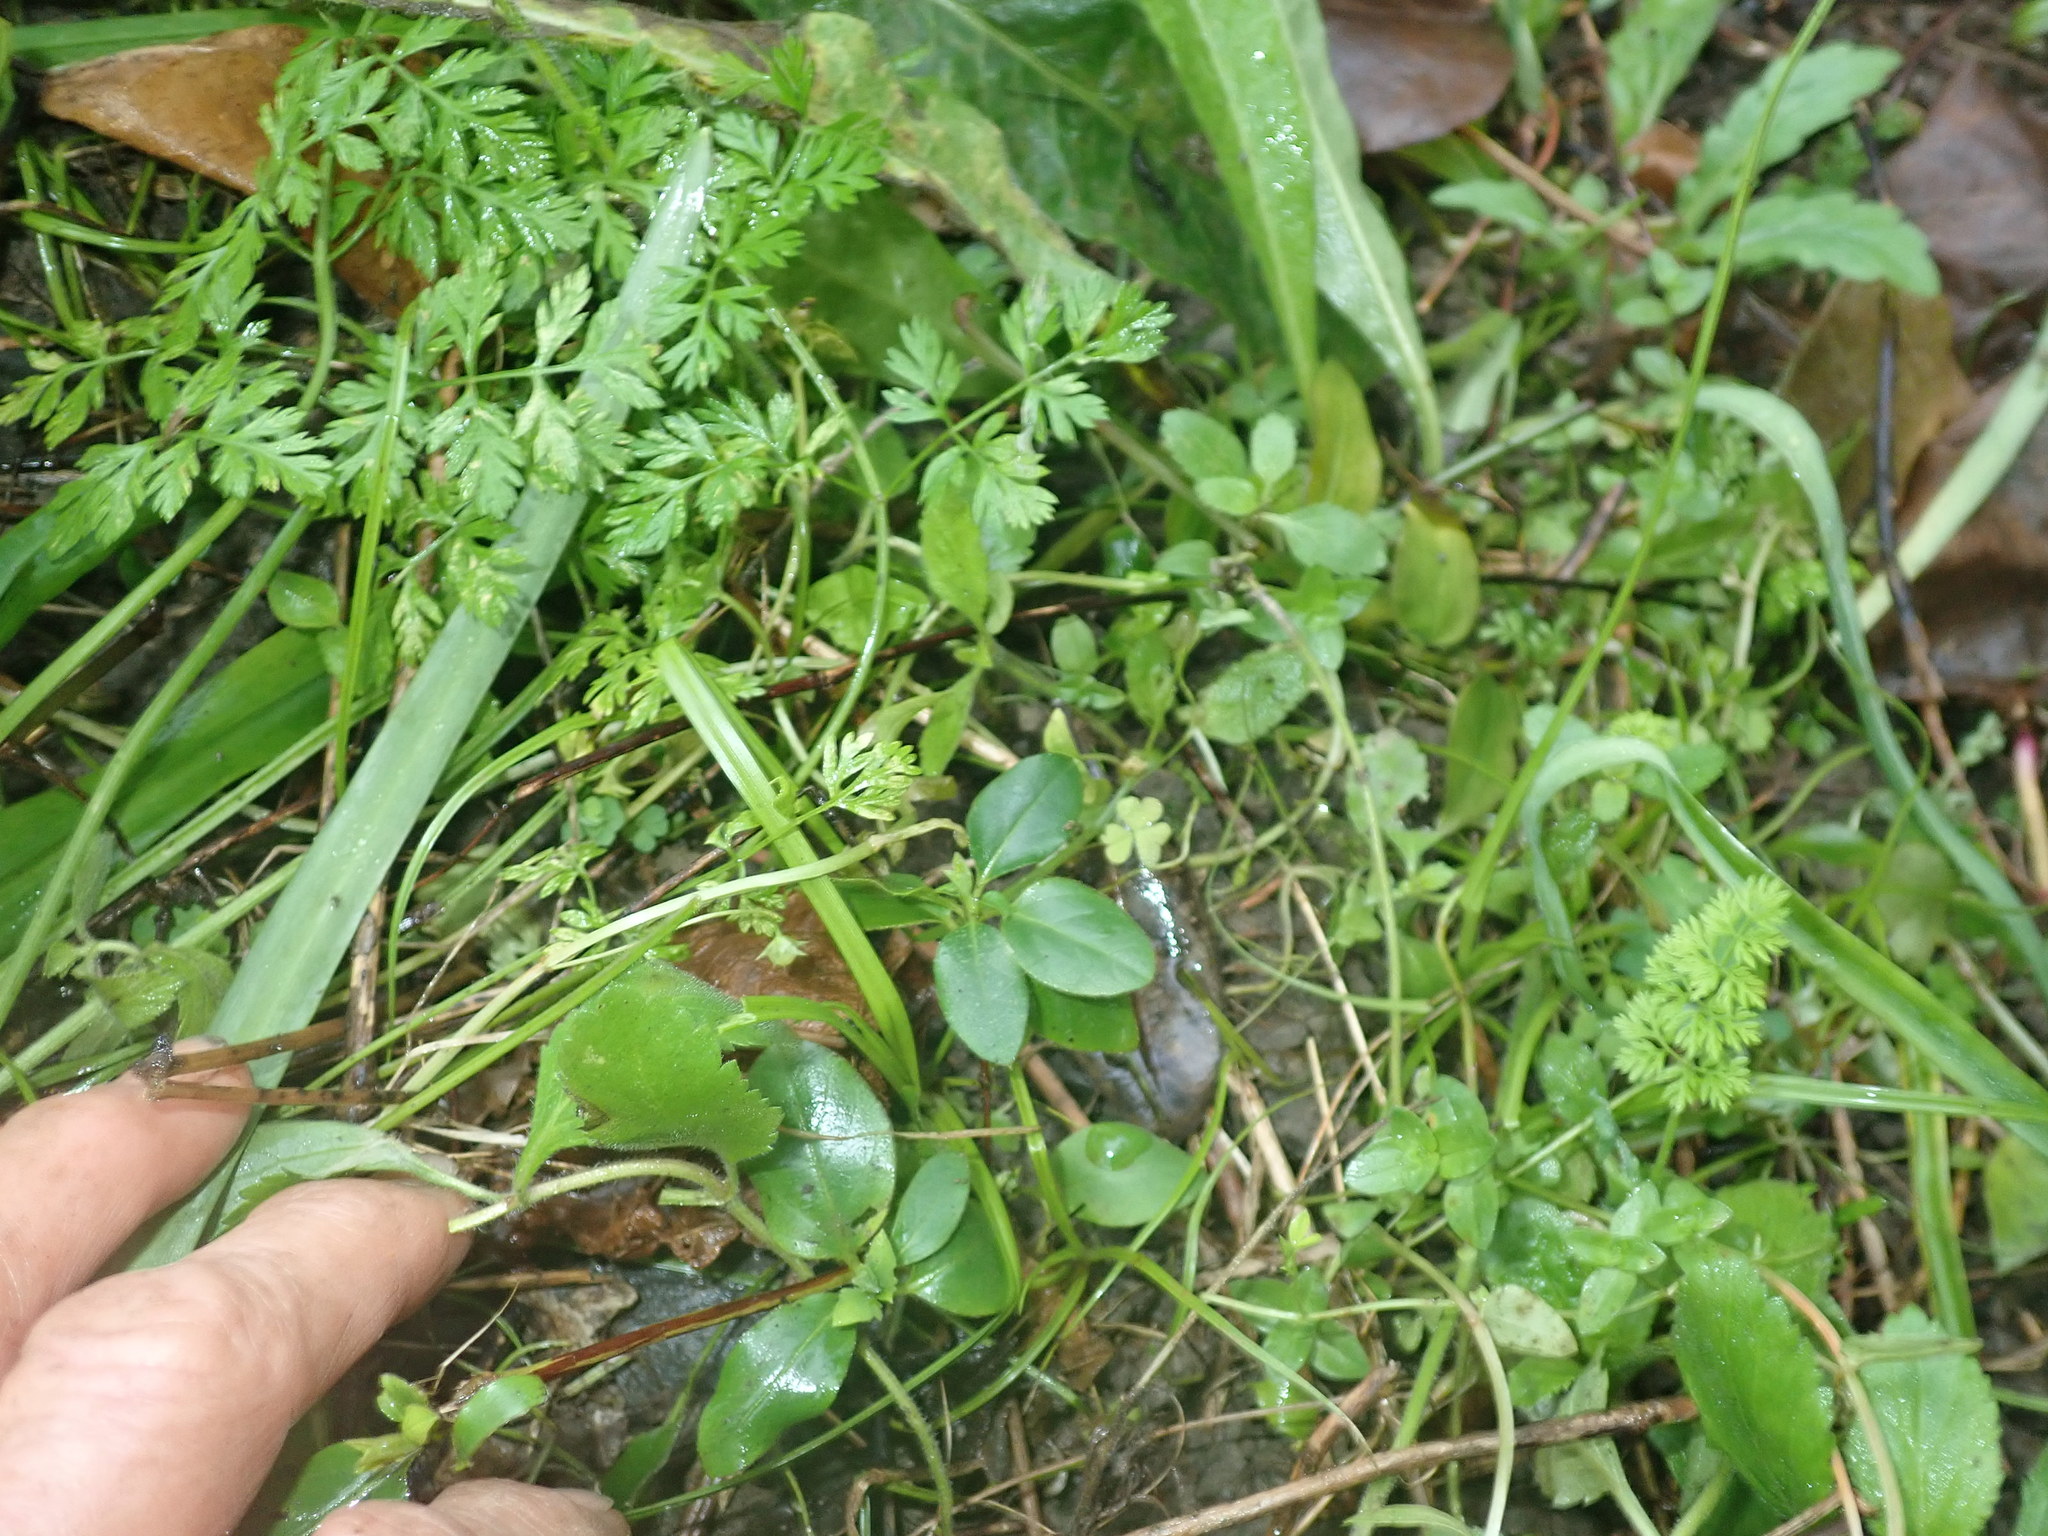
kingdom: Plantae
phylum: Tracheophyta
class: Magnoliopsida
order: Dipsacales
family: Caprifoliaceae
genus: Lonicera
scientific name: Lonicera japonica
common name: Japanese honeysuckle
